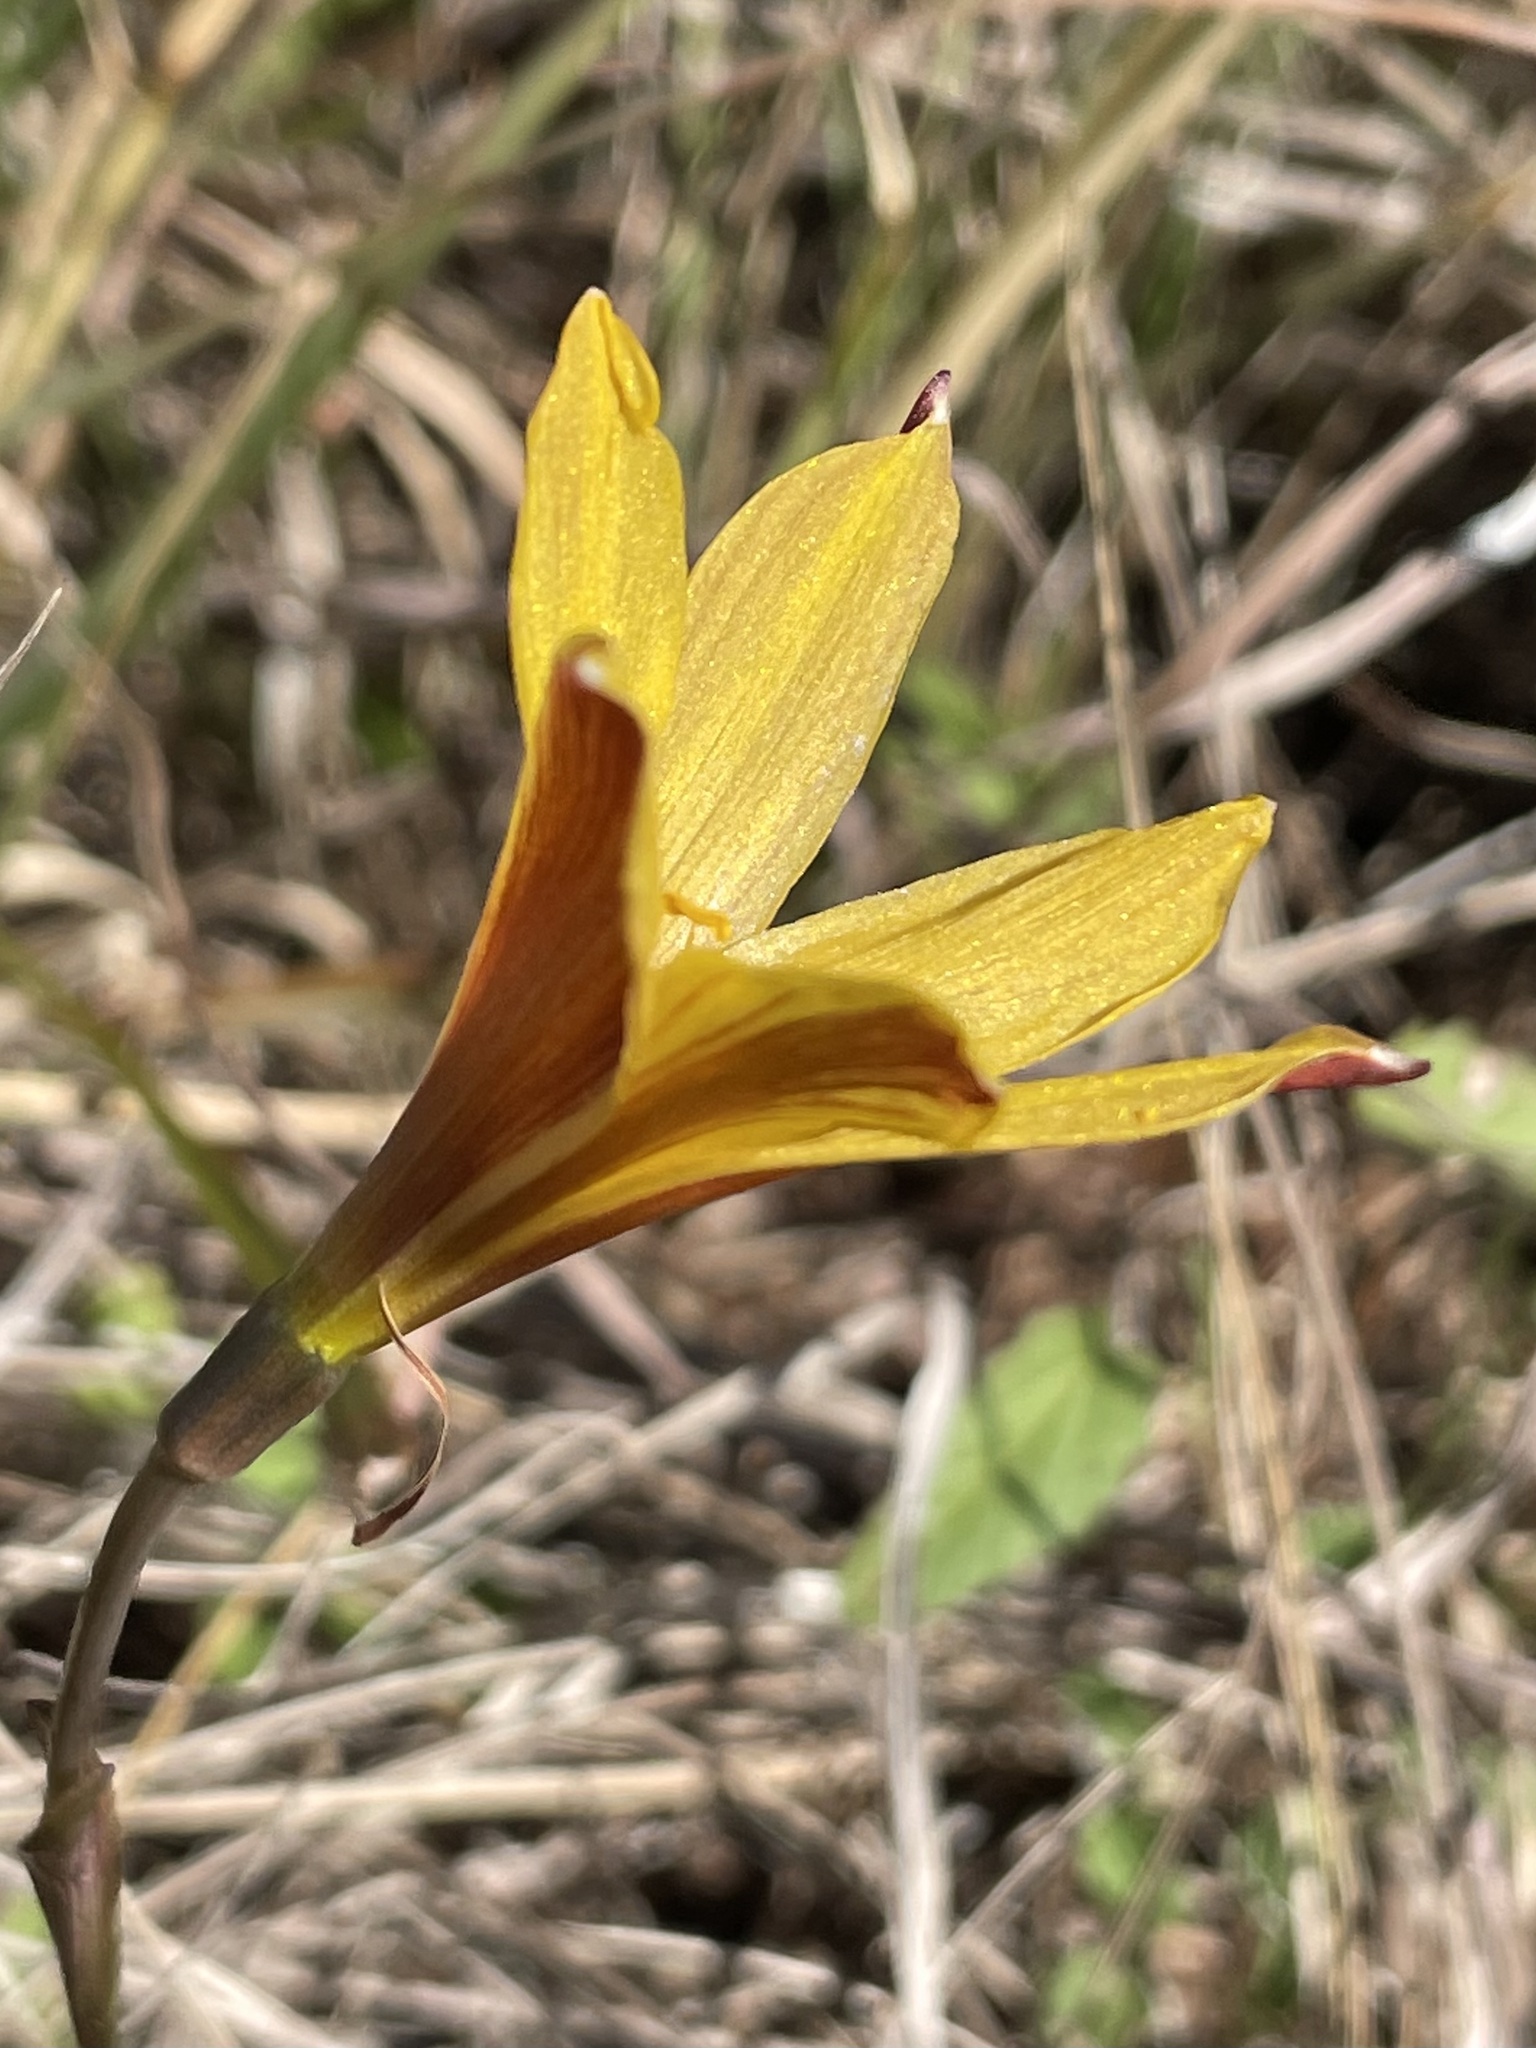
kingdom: Plantae
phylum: Tracheophyta
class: Liliopsida
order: Asparagales
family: Amaryllidaceae
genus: Zephyranthes
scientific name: Zephyranthes tubispatha
